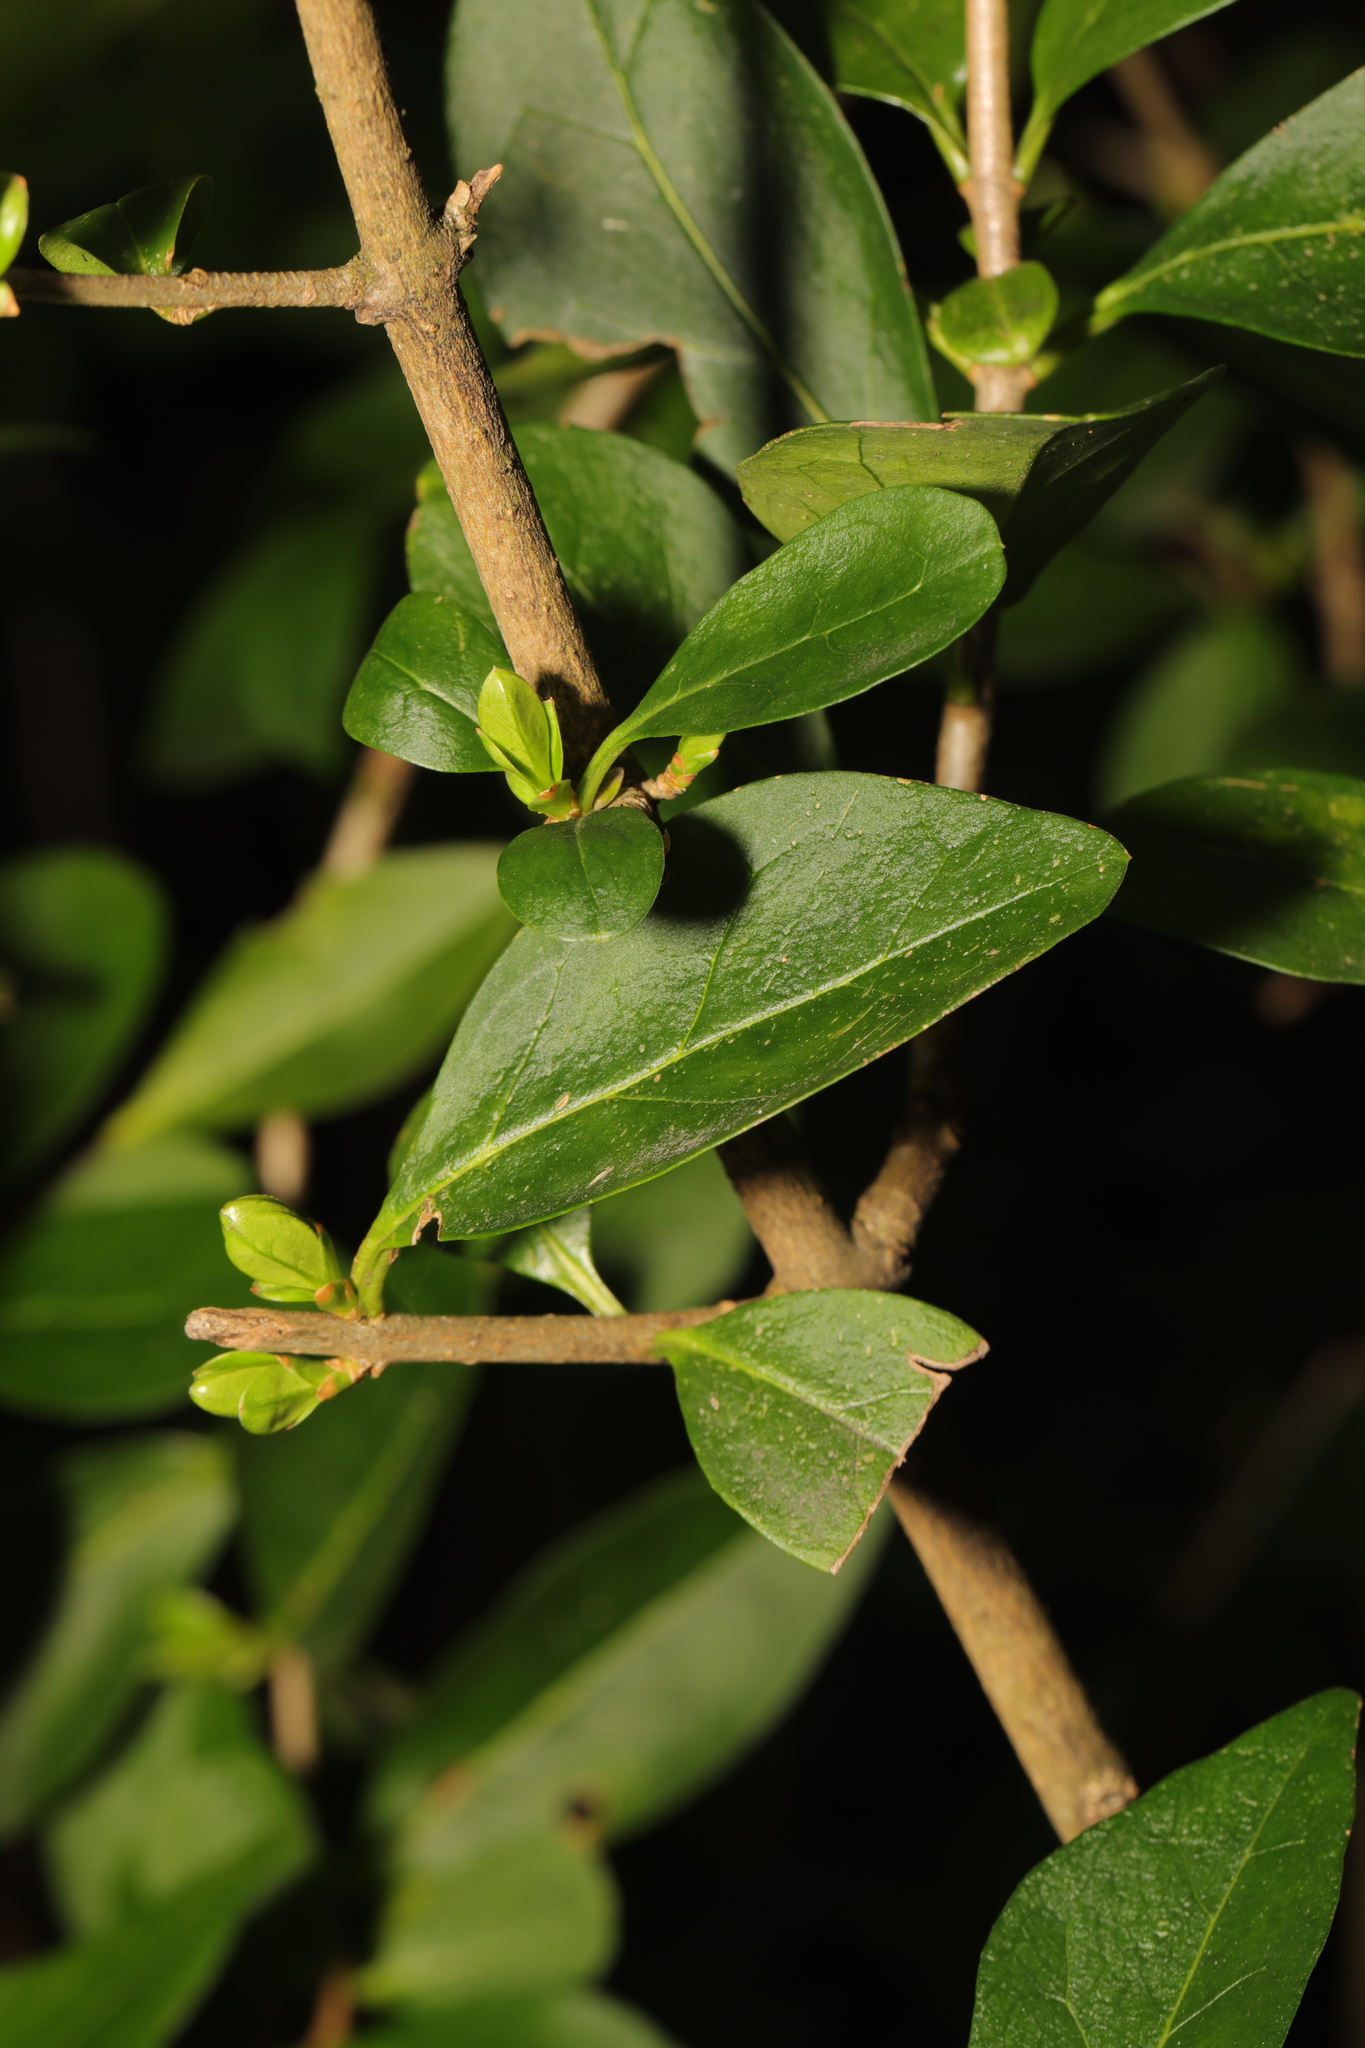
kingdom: Plantae
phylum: Tracheophyta
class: Magnoliopsida
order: Lamiales
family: Oleaceae
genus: Ligustrum
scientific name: Ligustrum ovalifolium
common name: California privet
